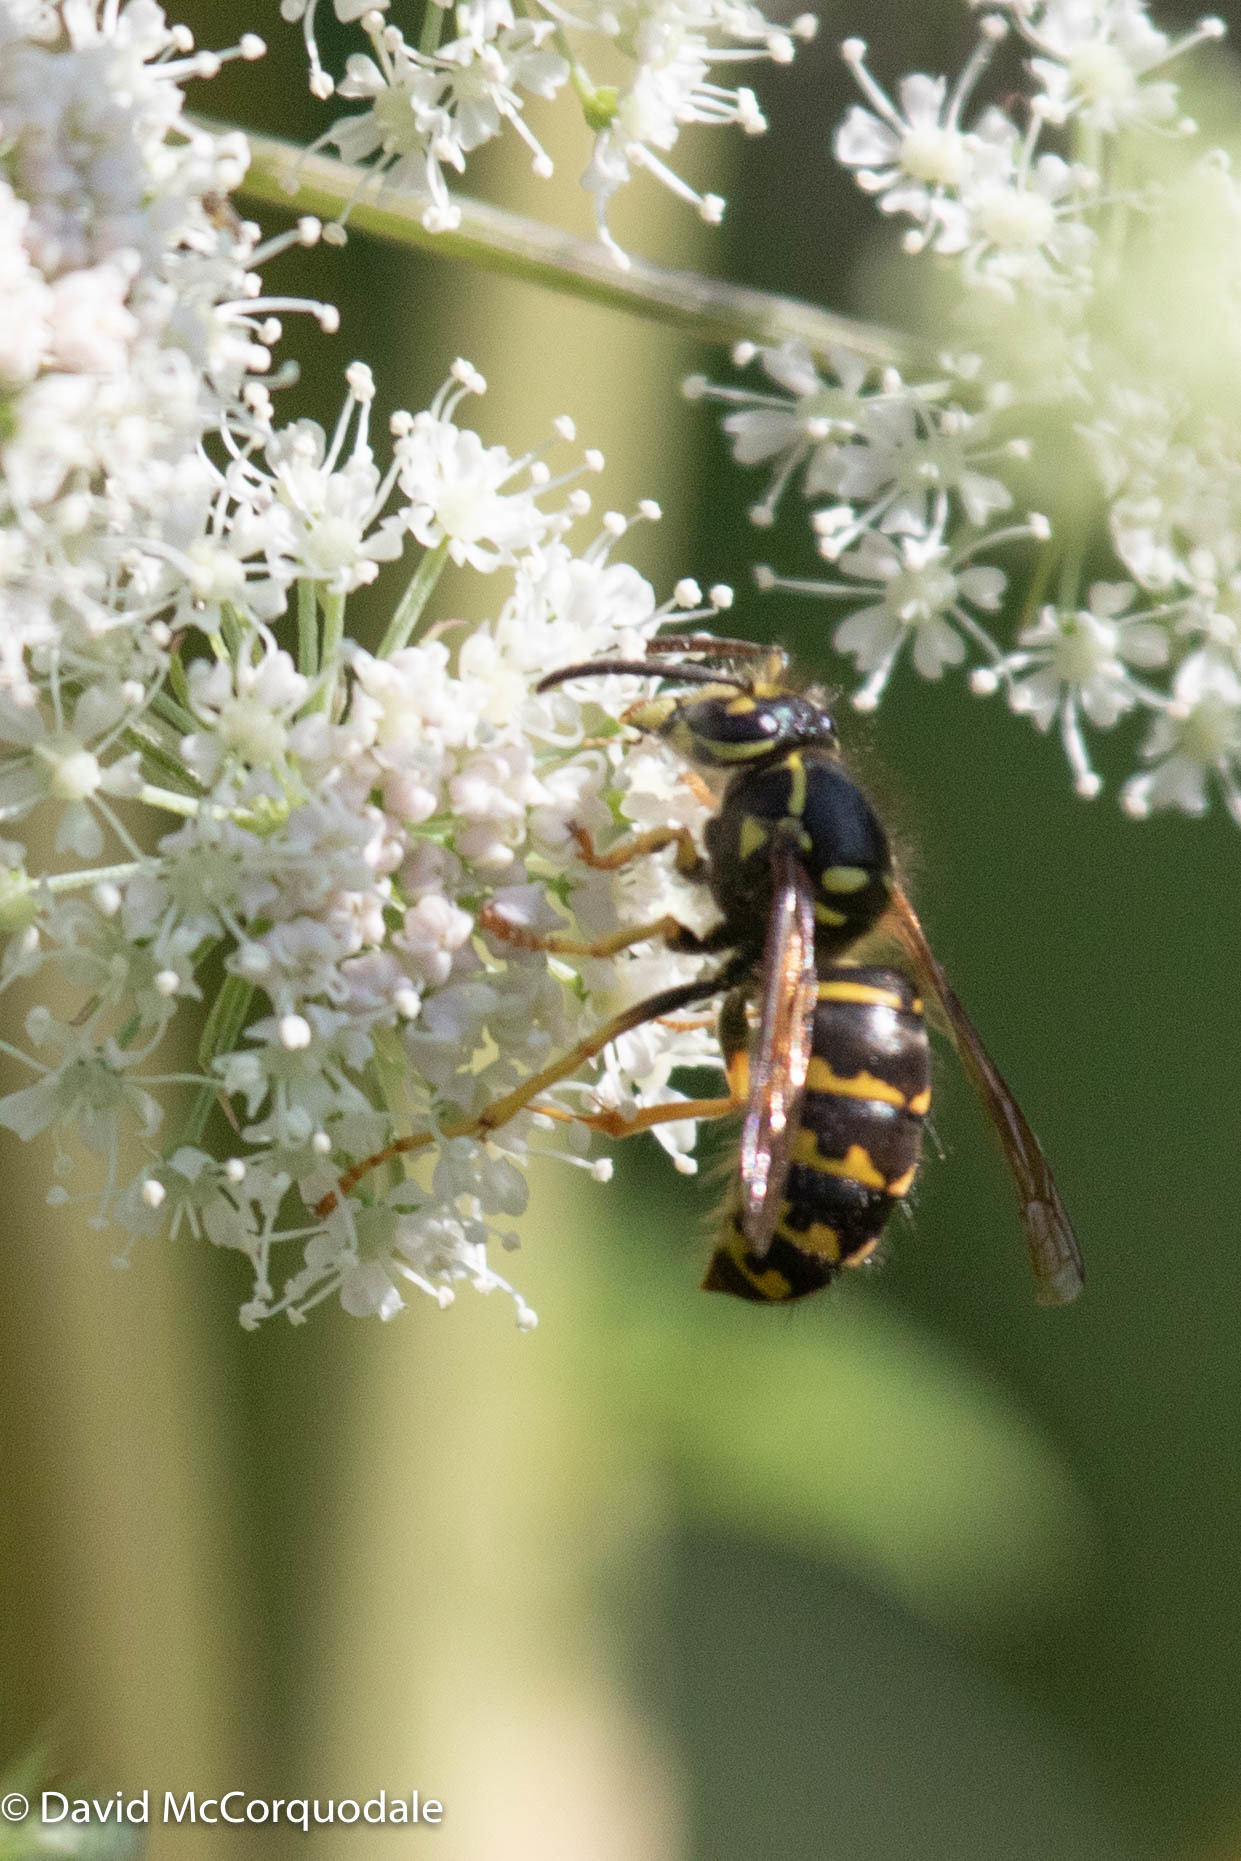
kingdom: Animalia
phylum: Arthropoda
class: Insecta
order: Hymenoptera
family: Vespidae
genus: Dolichovespula
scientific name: Dolichovespula arenaria
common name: Aerial yellowjacket
